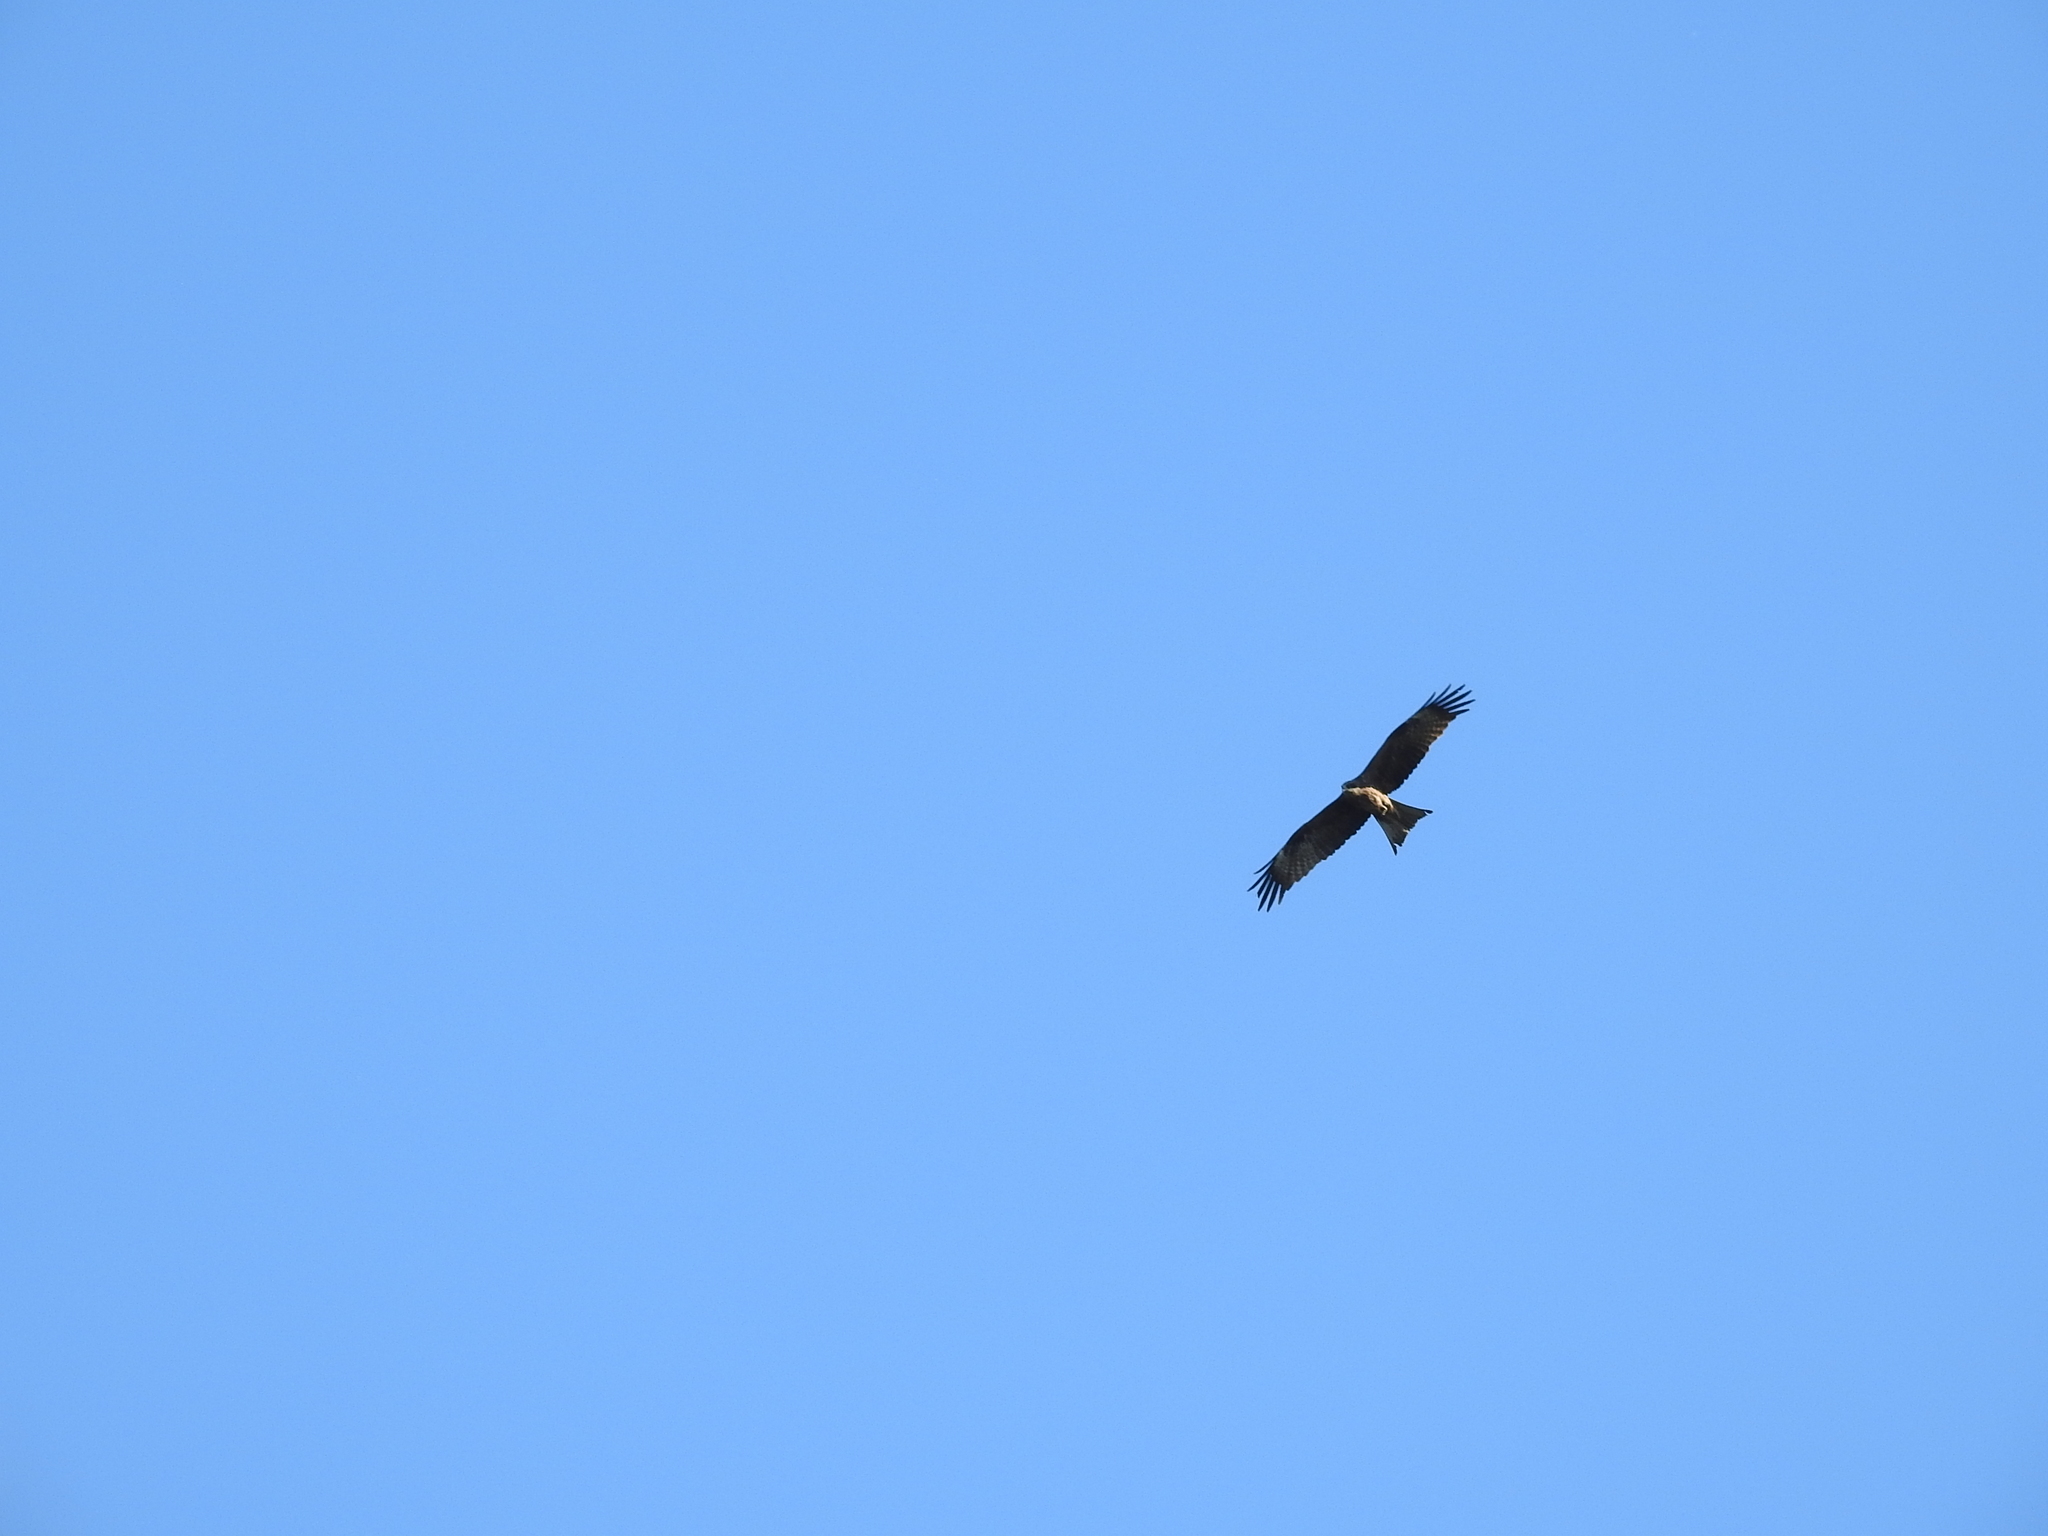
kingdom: Animalia
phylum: Chordata
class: Aves
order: Accipitriformes
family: Accipitridae
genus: Milvus
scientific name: Milvus migrans
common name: Black kite
